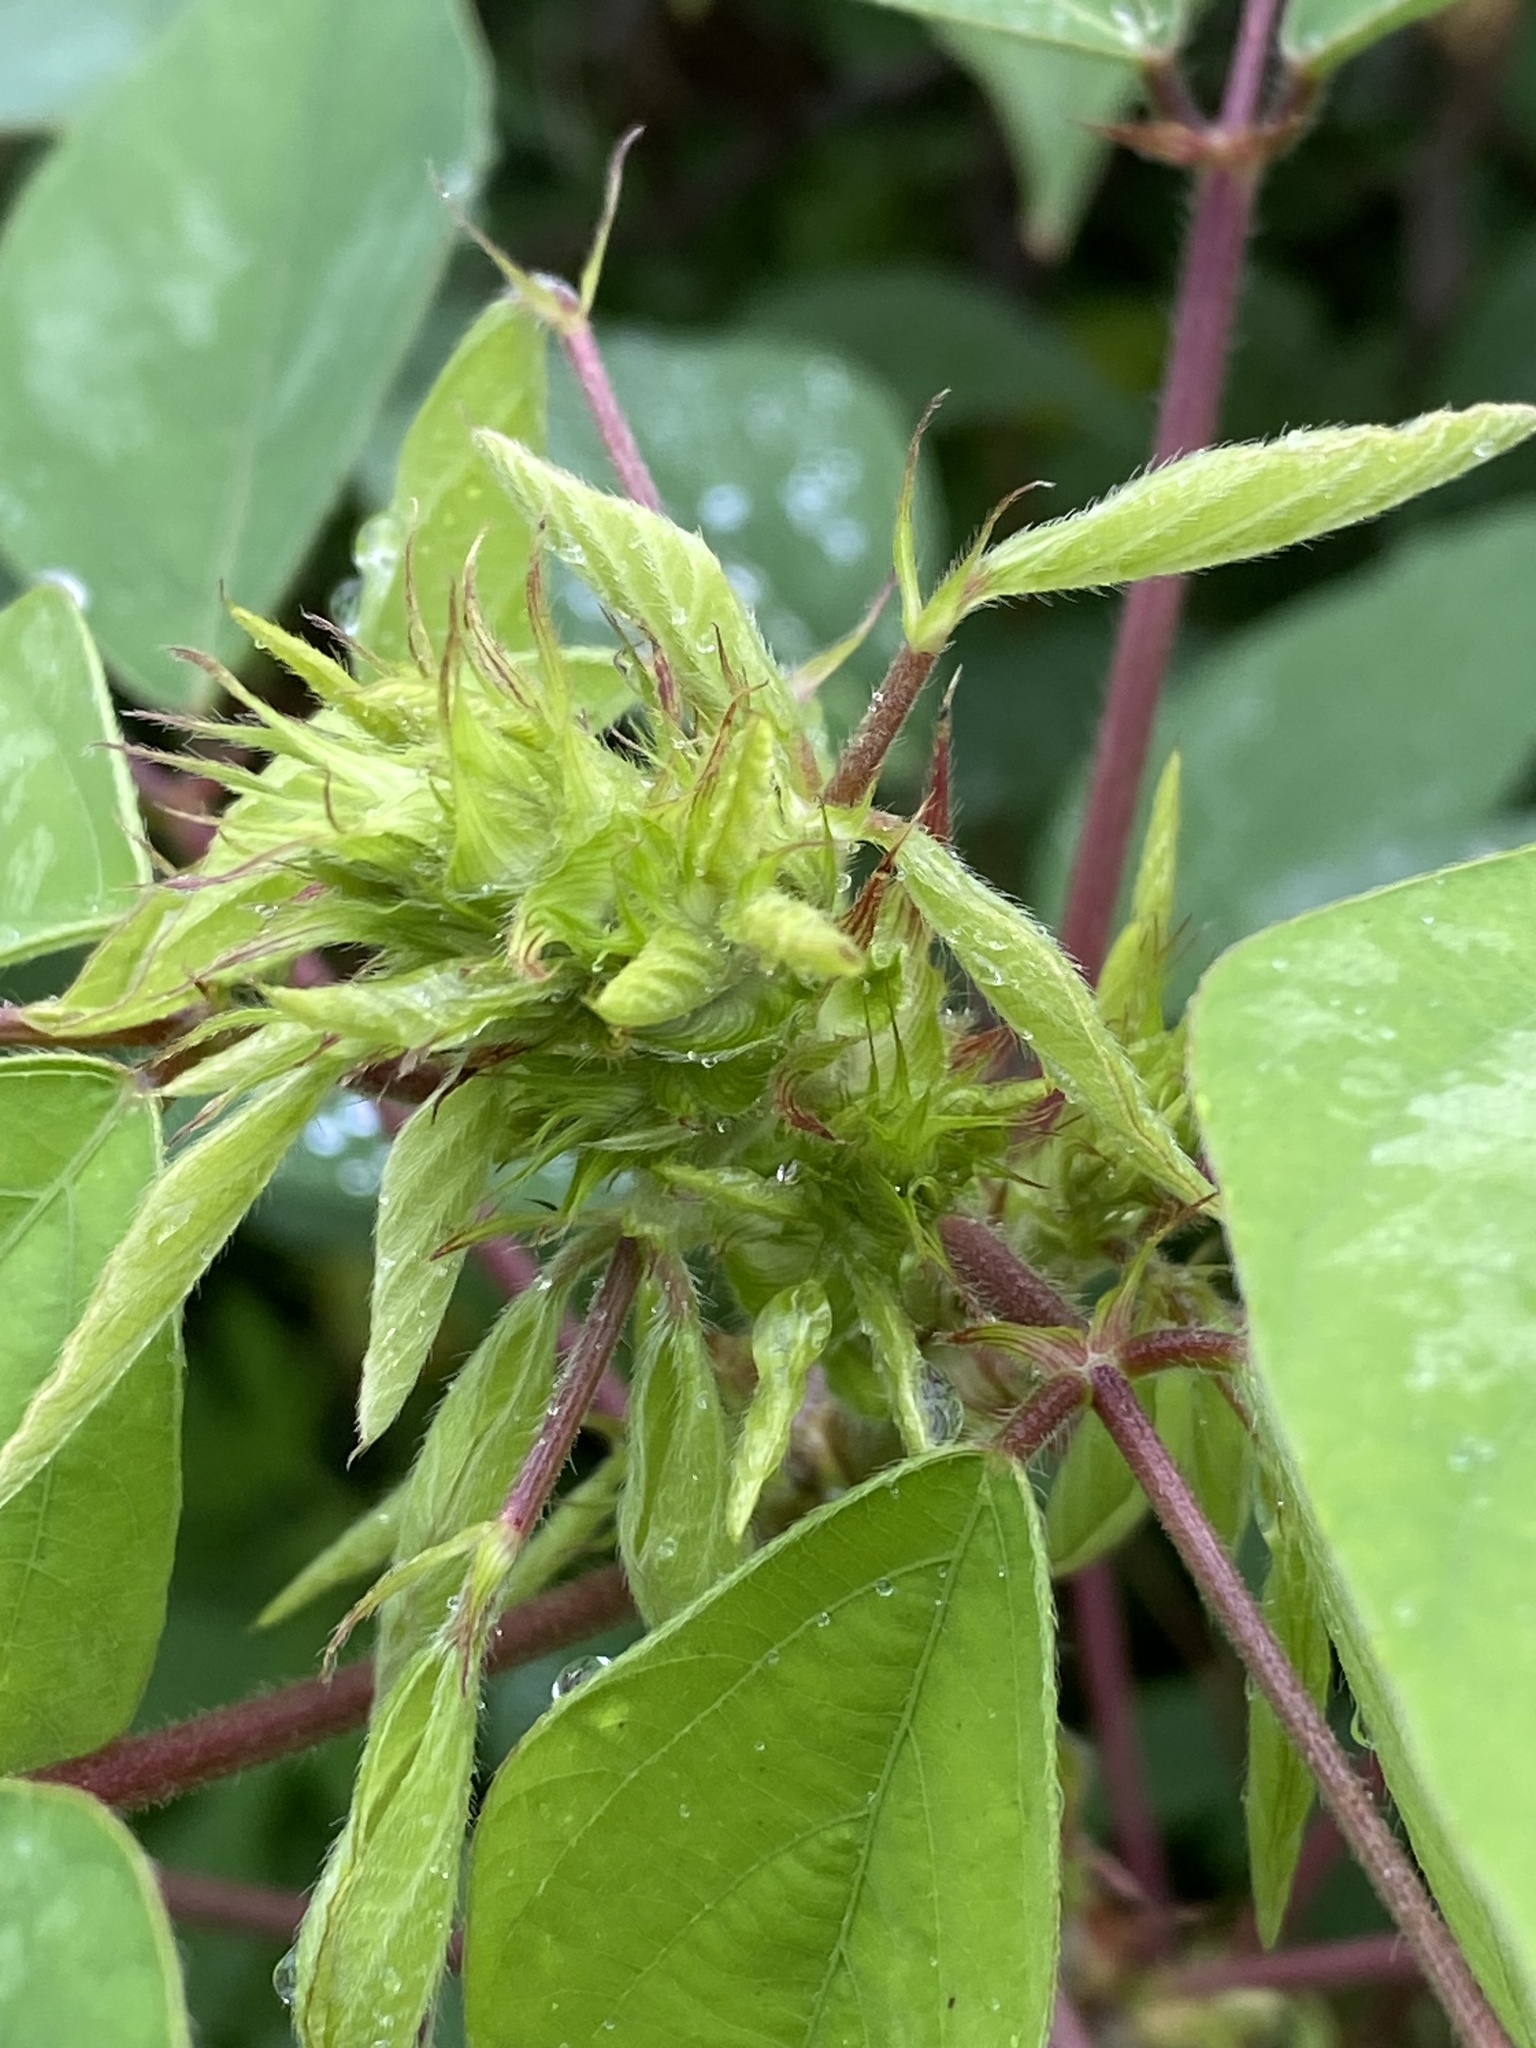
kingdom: Plantae
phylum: Tracheophyta
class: Magnoliopsida
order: Fabales
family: Fabaceae
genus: Desmodium
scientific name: Desmodium tortuosum
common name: Dixie ticktrefoil
